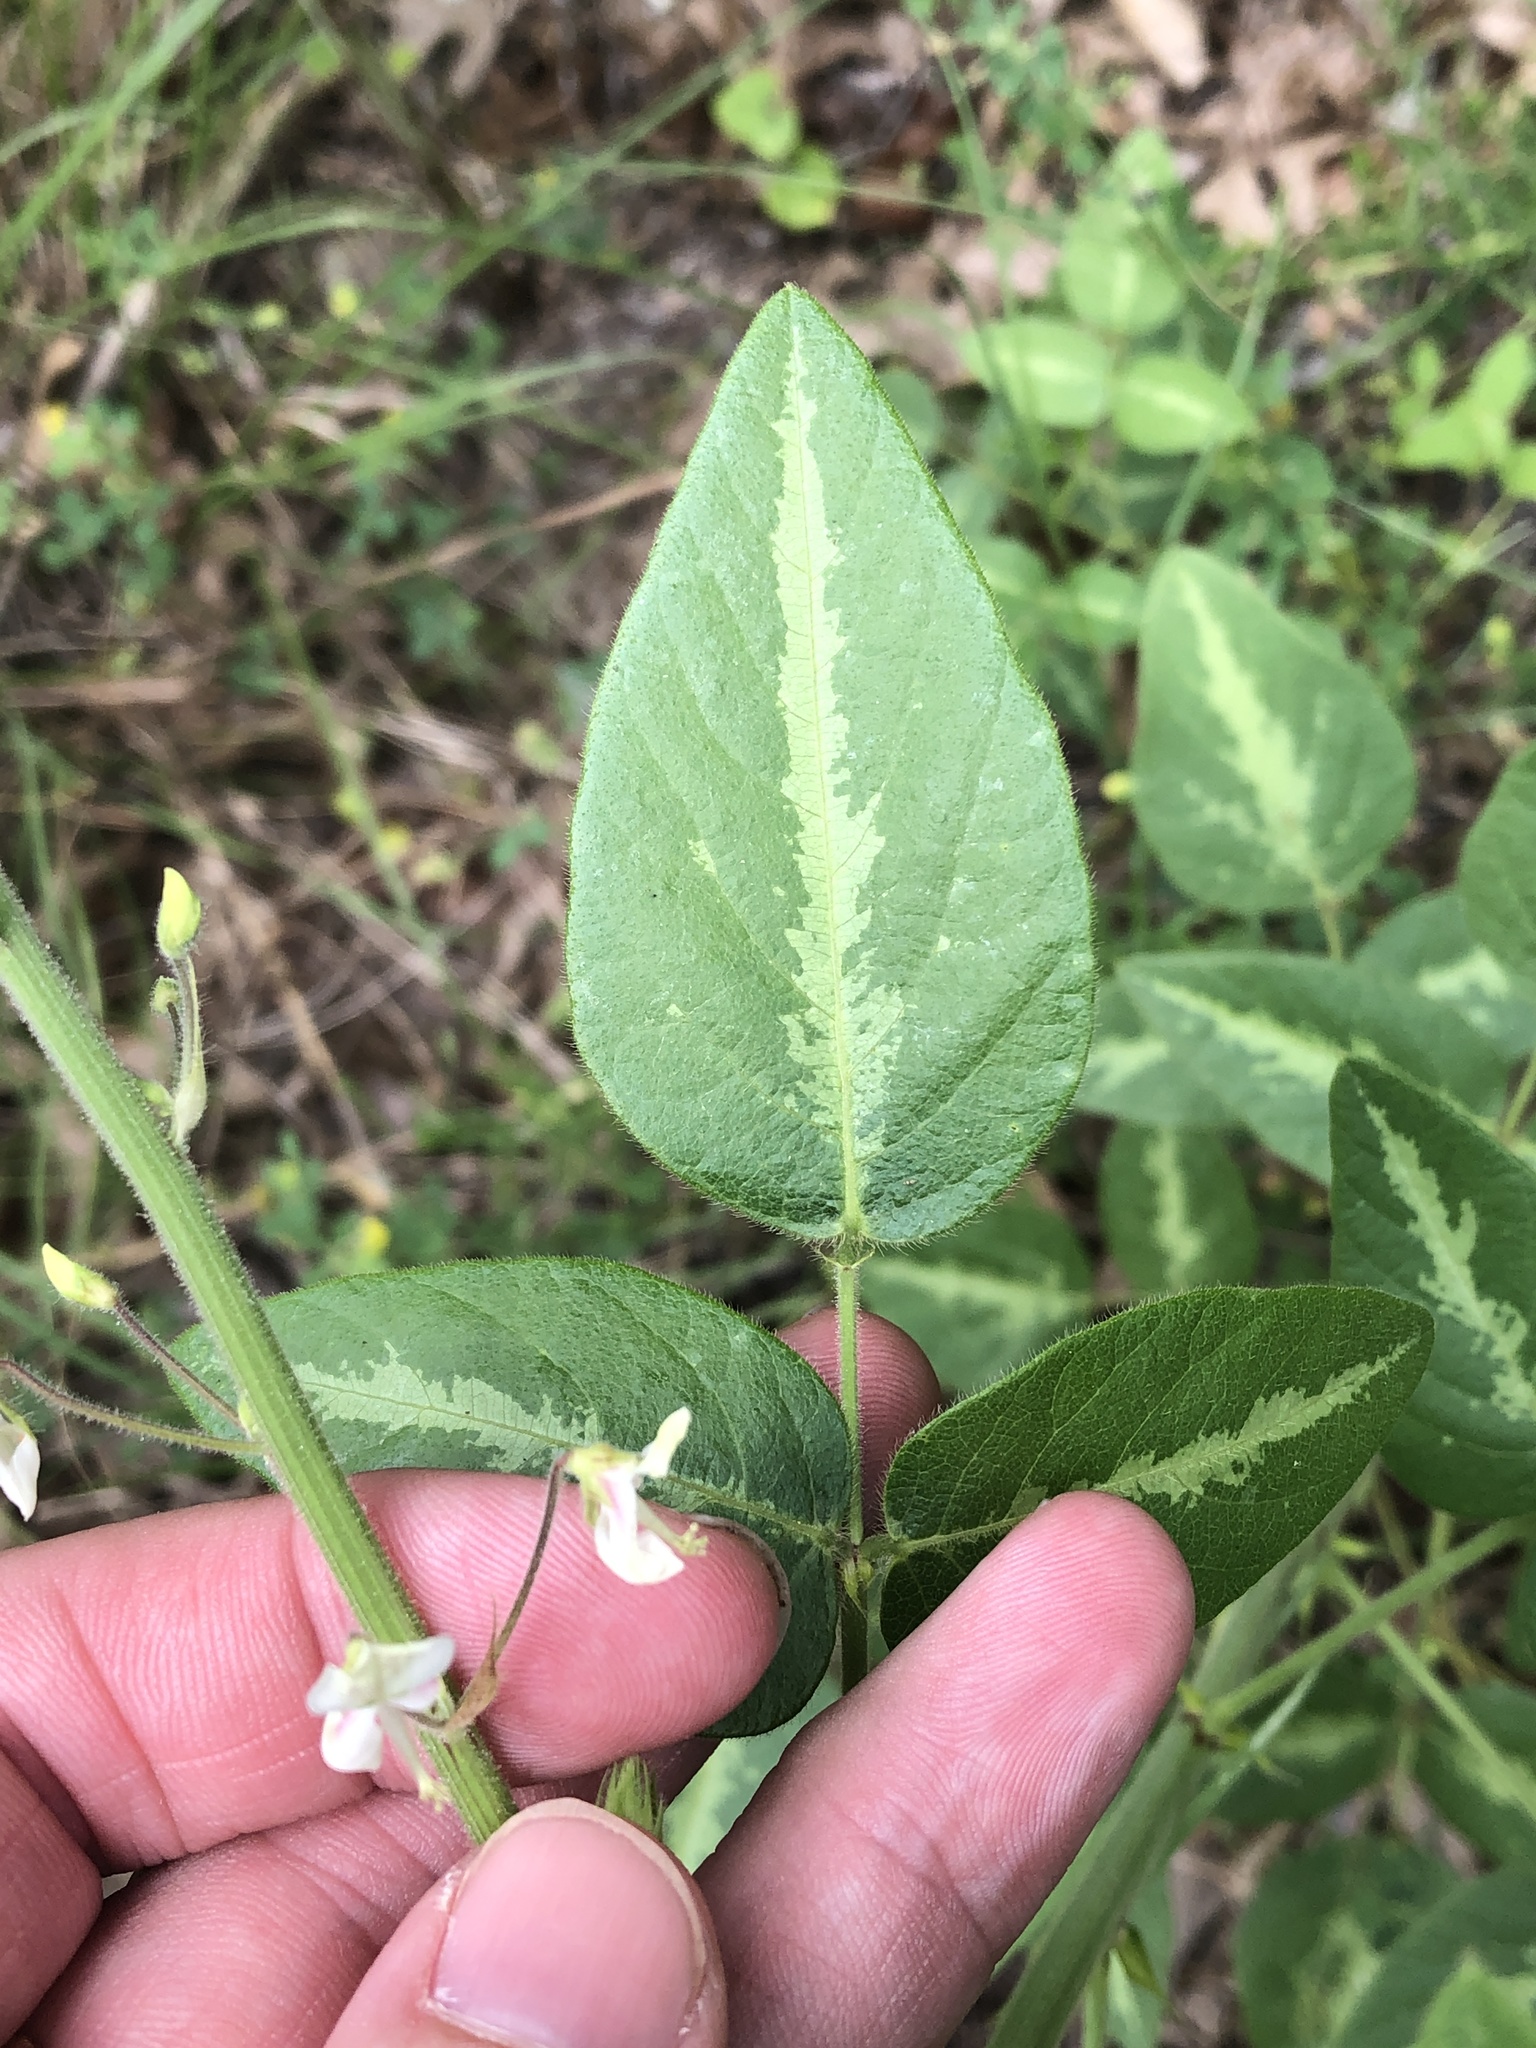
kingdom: Plantae
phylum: Tracheophyta
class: Magnoliopsida
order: Fabales
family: Fabaceae
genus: Desmodium
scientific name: Desmodium tweedyi
